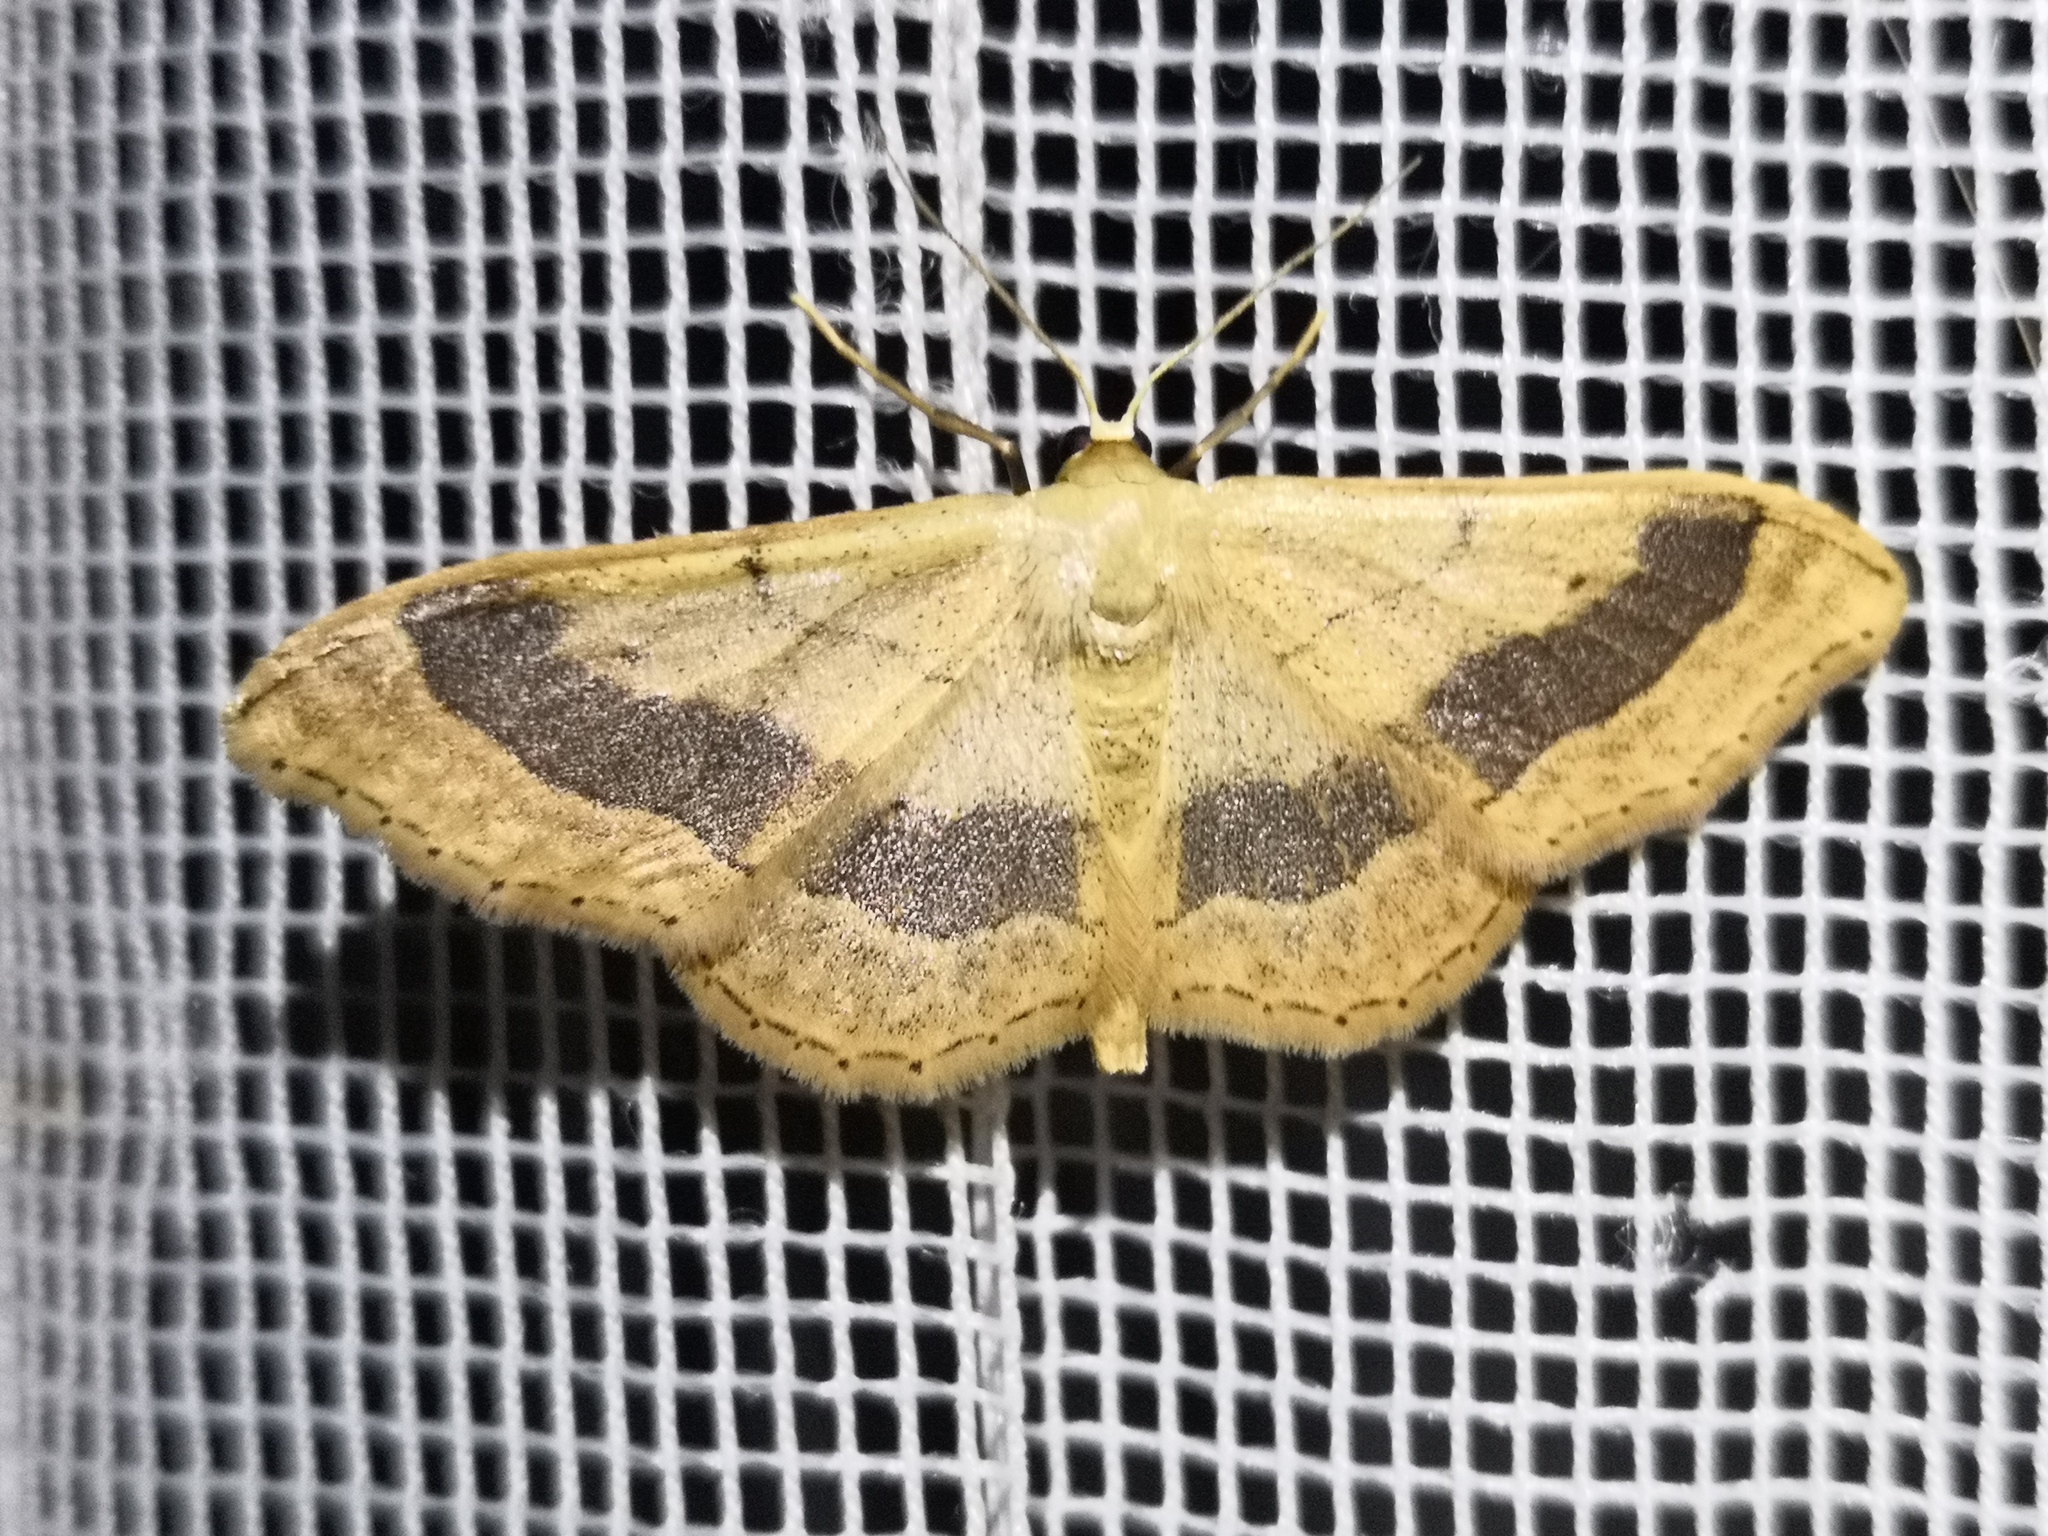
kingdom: Animalia
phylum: Arthropoda
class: Insecta
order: Lepidoptera
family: Geometridae
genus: Idaea
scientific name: Idaea aversata
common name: Riband wave
